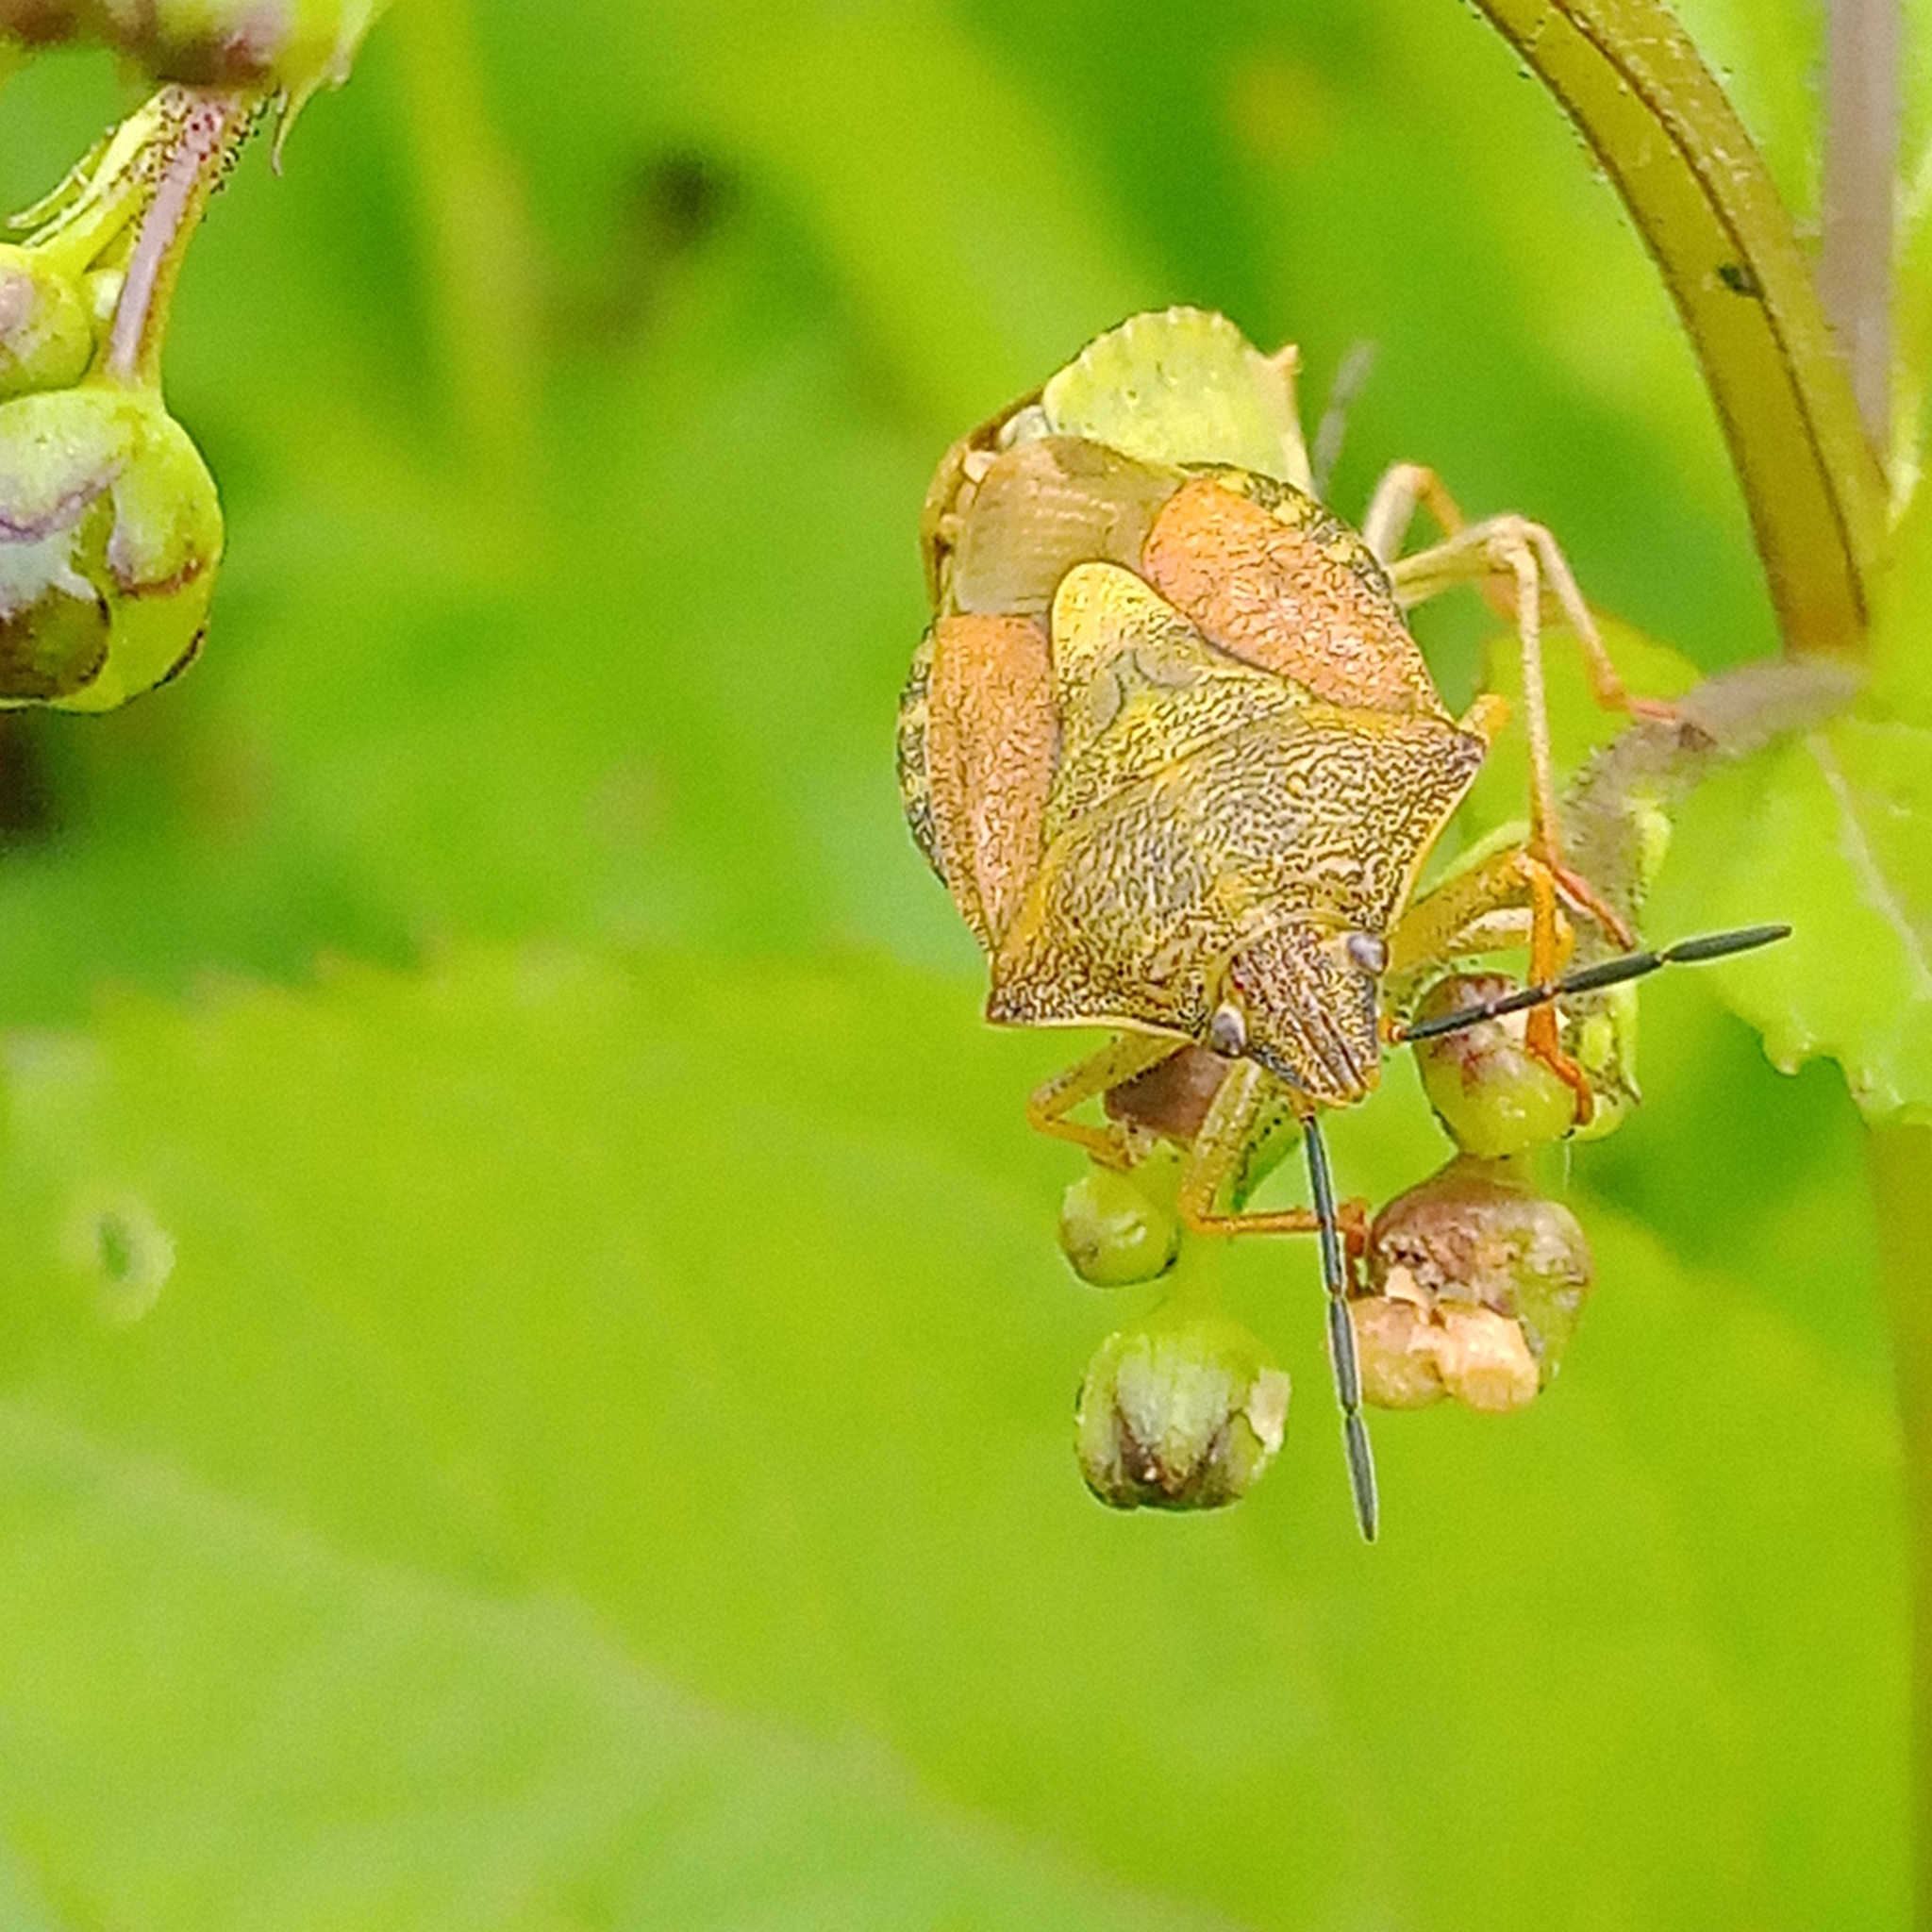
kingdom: Animalia
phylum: Arthropoda
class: Insecta
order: Hemiptera
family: Pentatomidae
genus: Carpocoris
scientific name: Carpocoris purpureipennis
